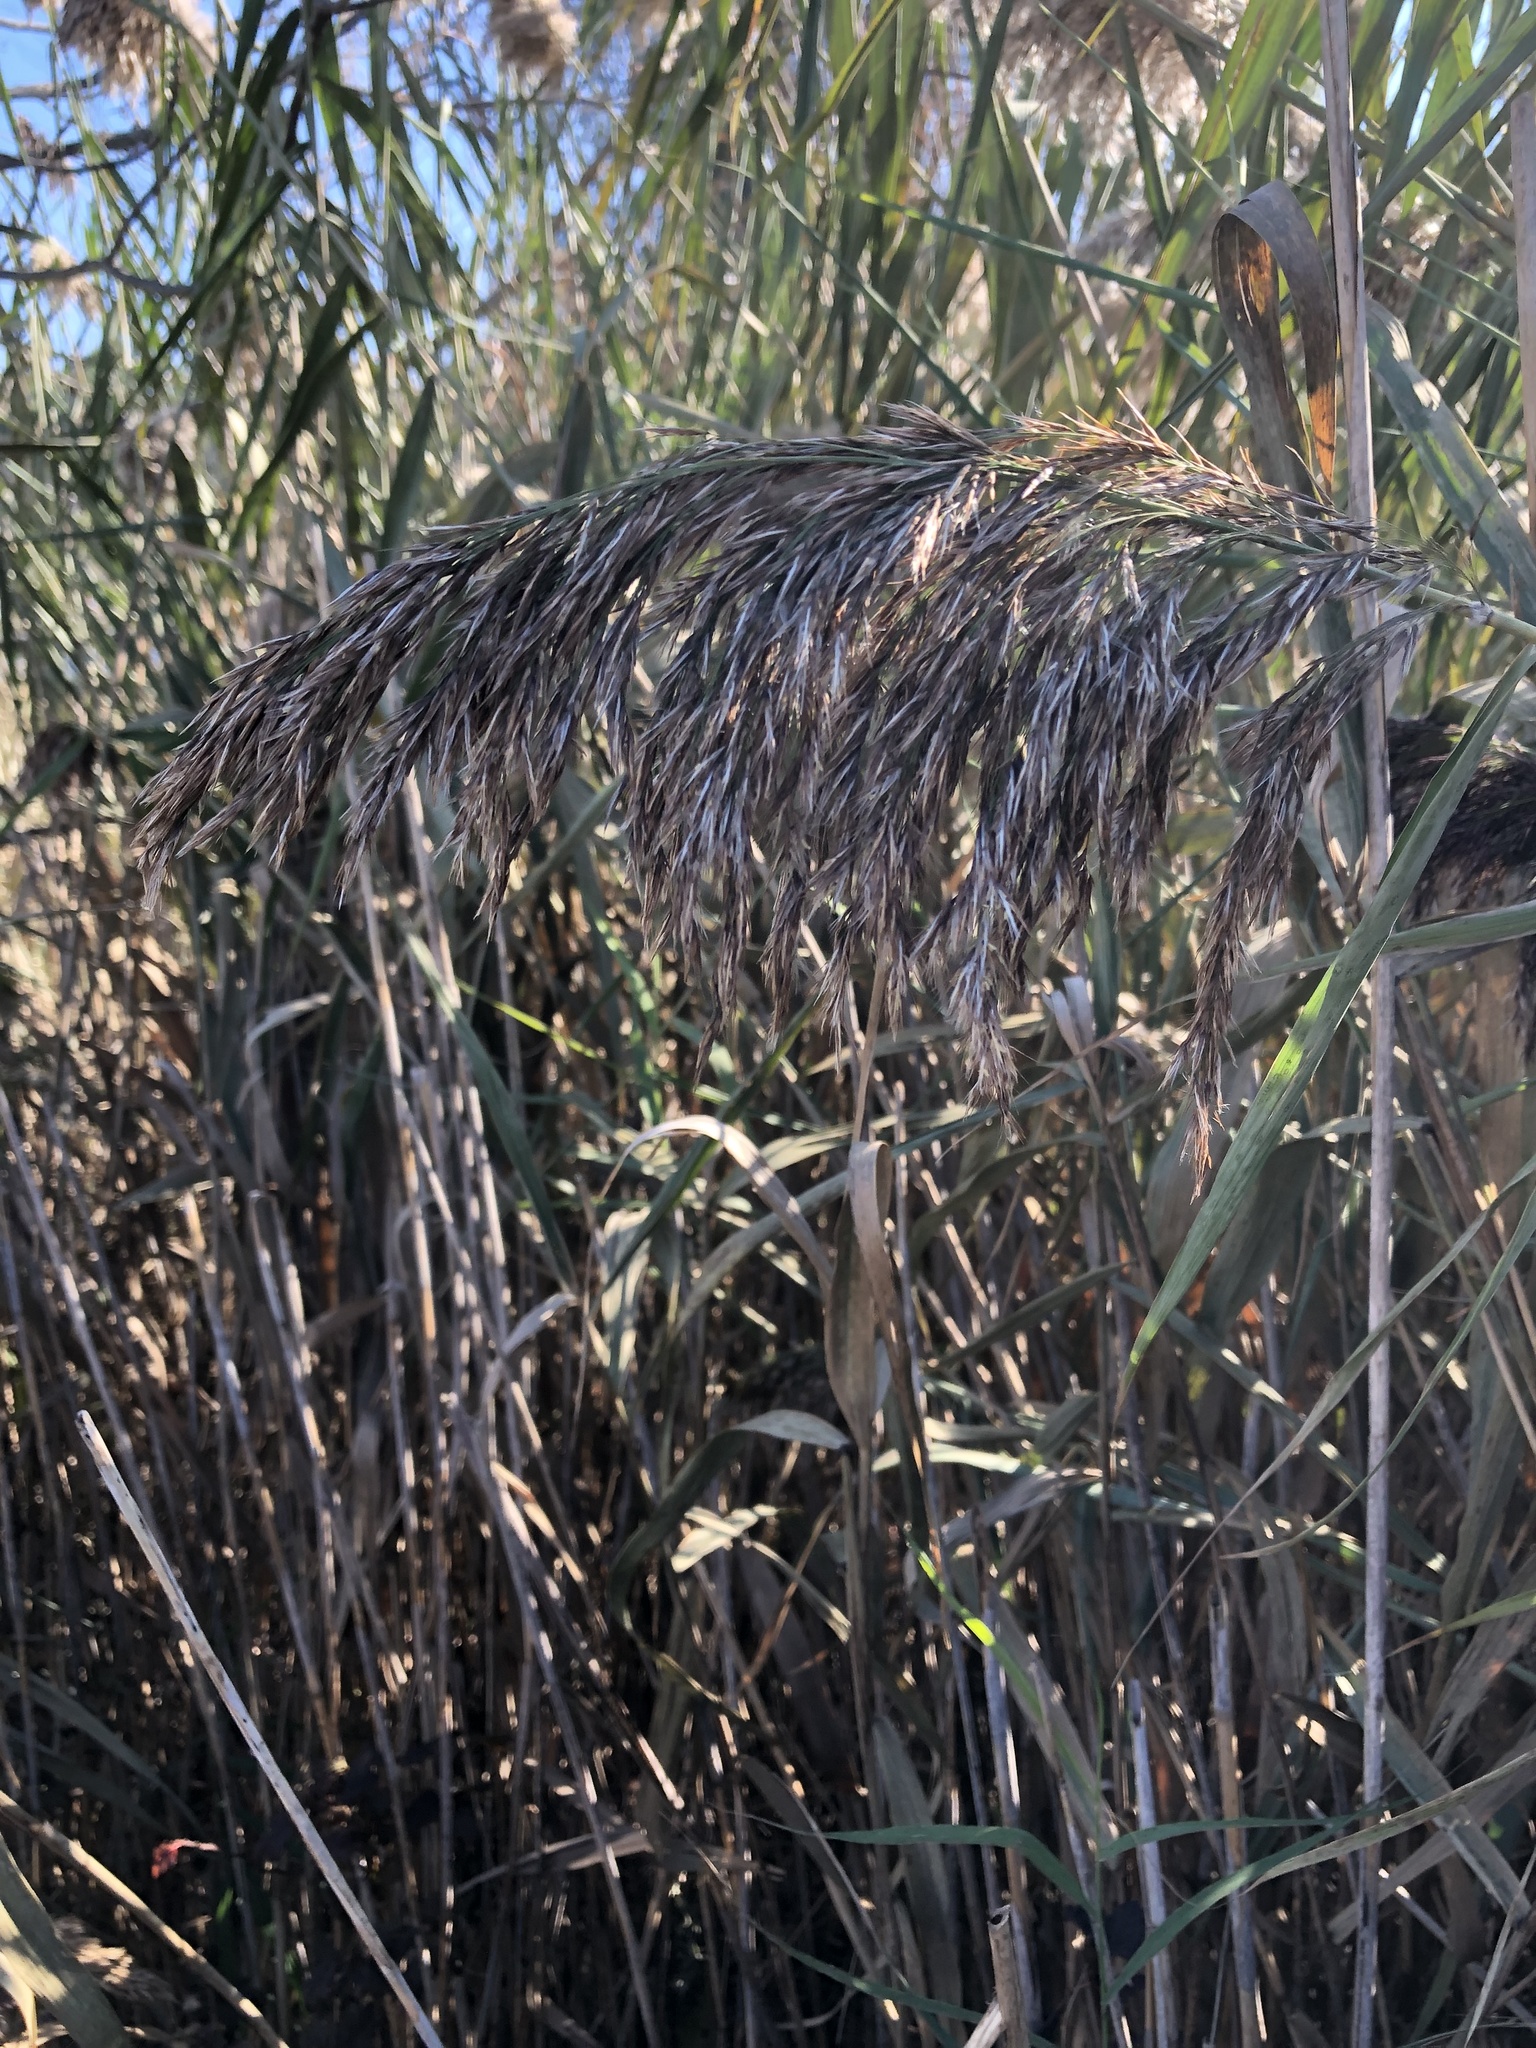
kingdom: Plantae
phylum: Tracheophyta
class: Liliopsida
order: Poales
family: Poaceae
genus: Phragmites
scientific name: Phragmites australis
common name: Common reed
